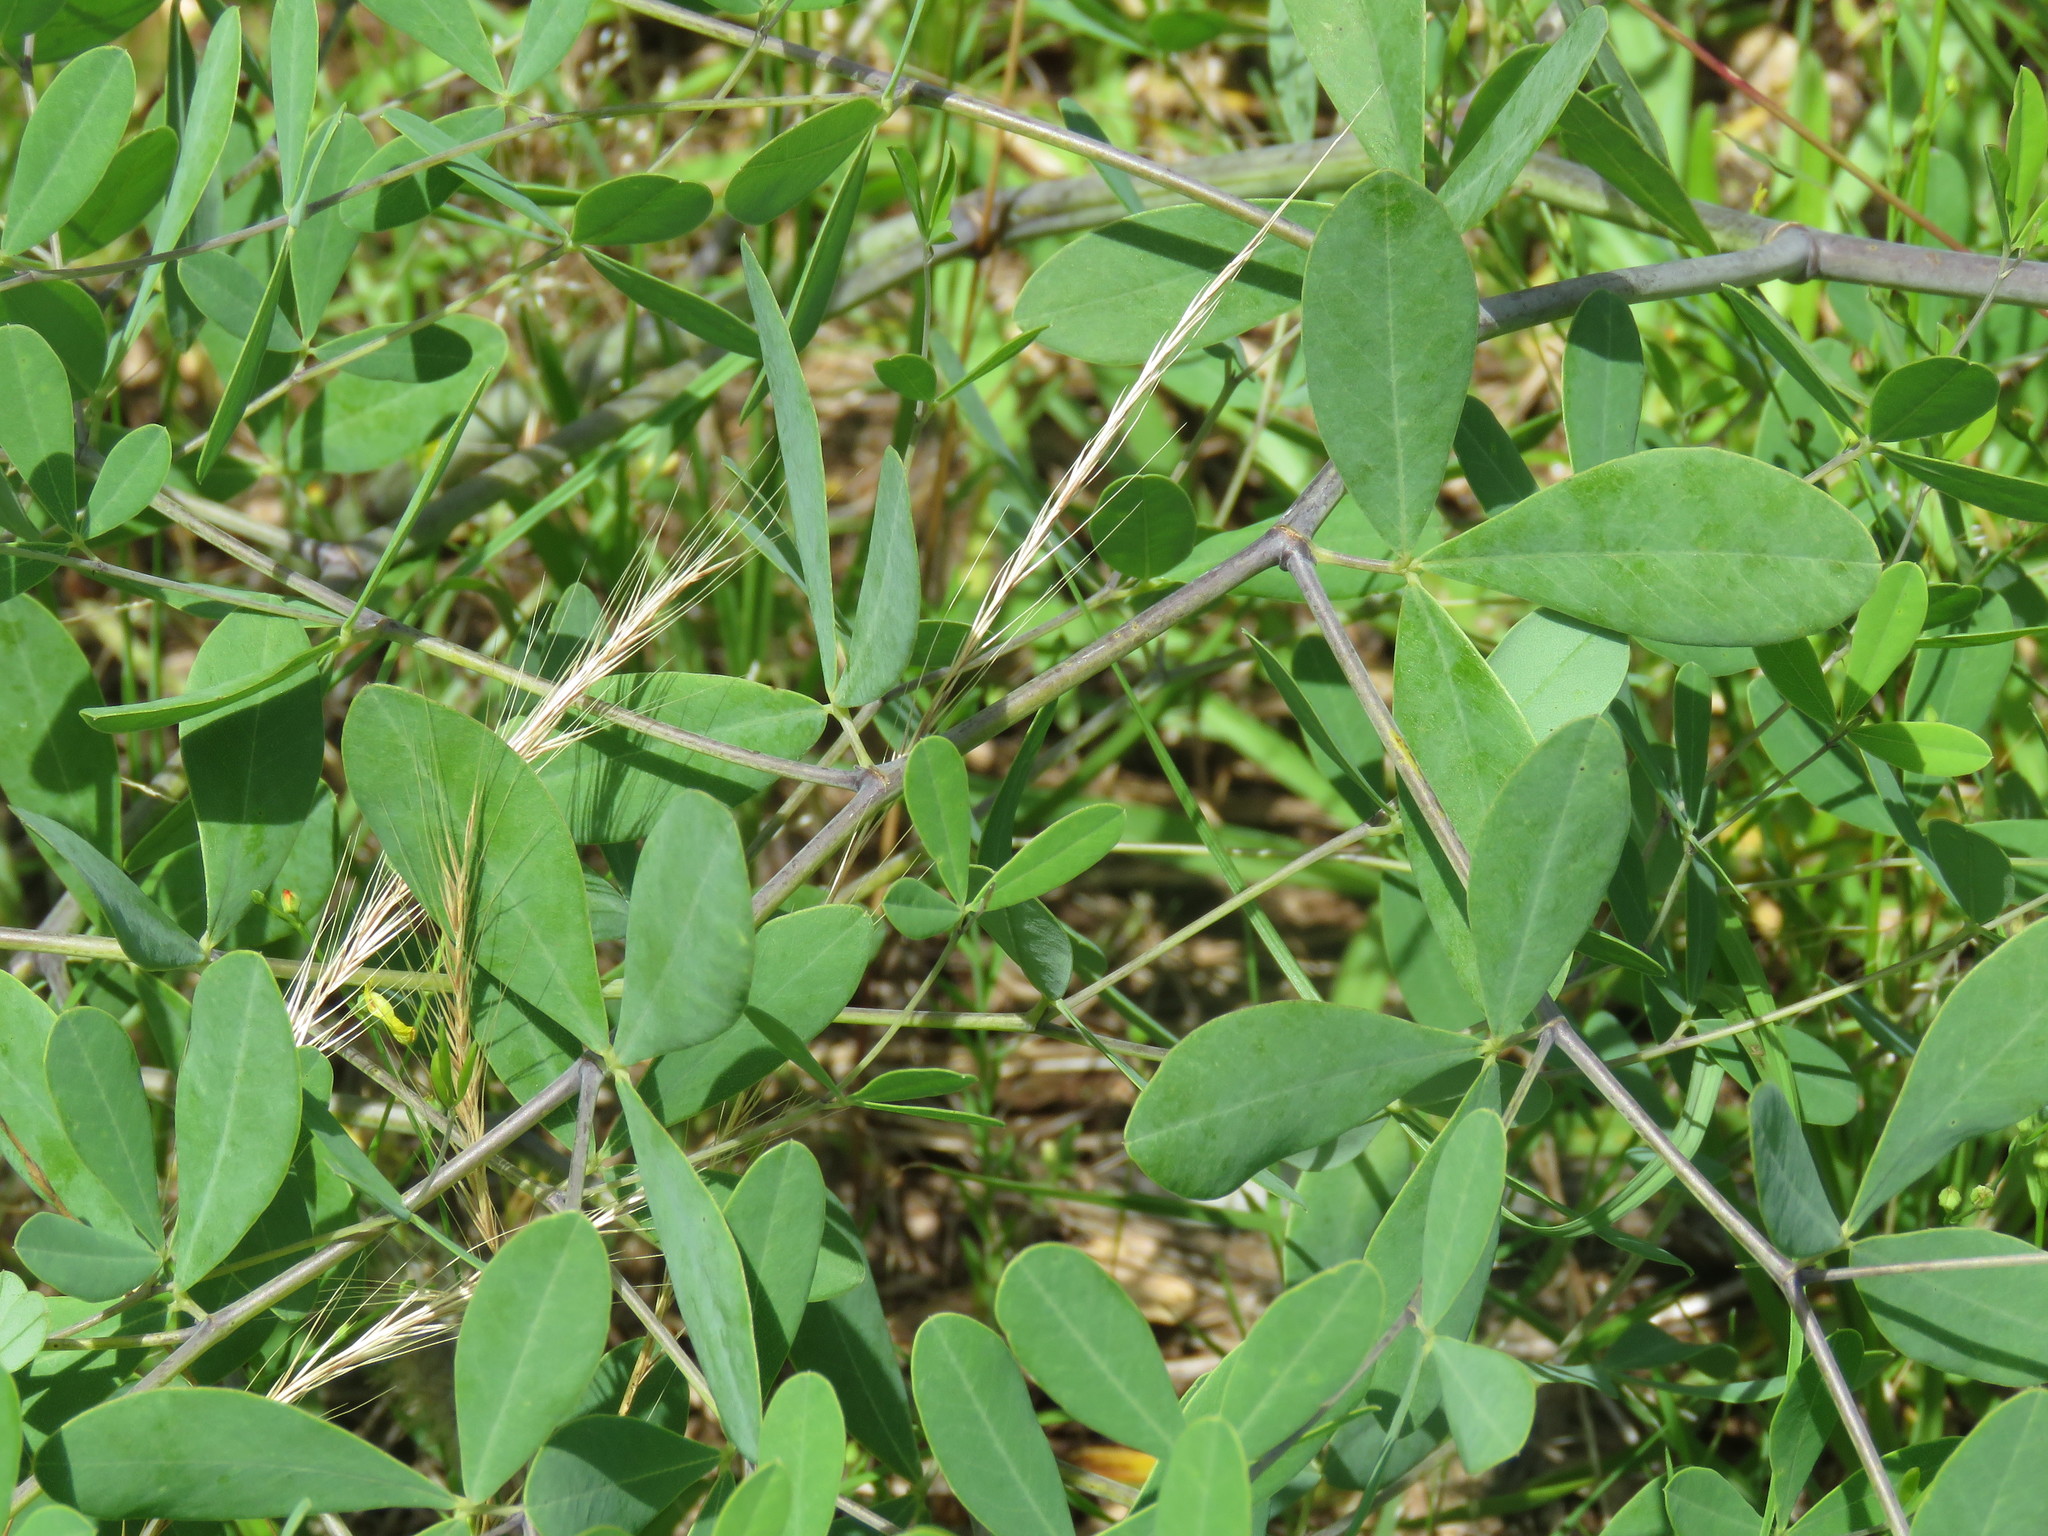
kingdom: Plantae
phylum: Tracheophyta
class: Magnoliopsida
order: Fabales
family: Fabaceae
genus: Baptisia
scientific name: Baptisia bracteata
